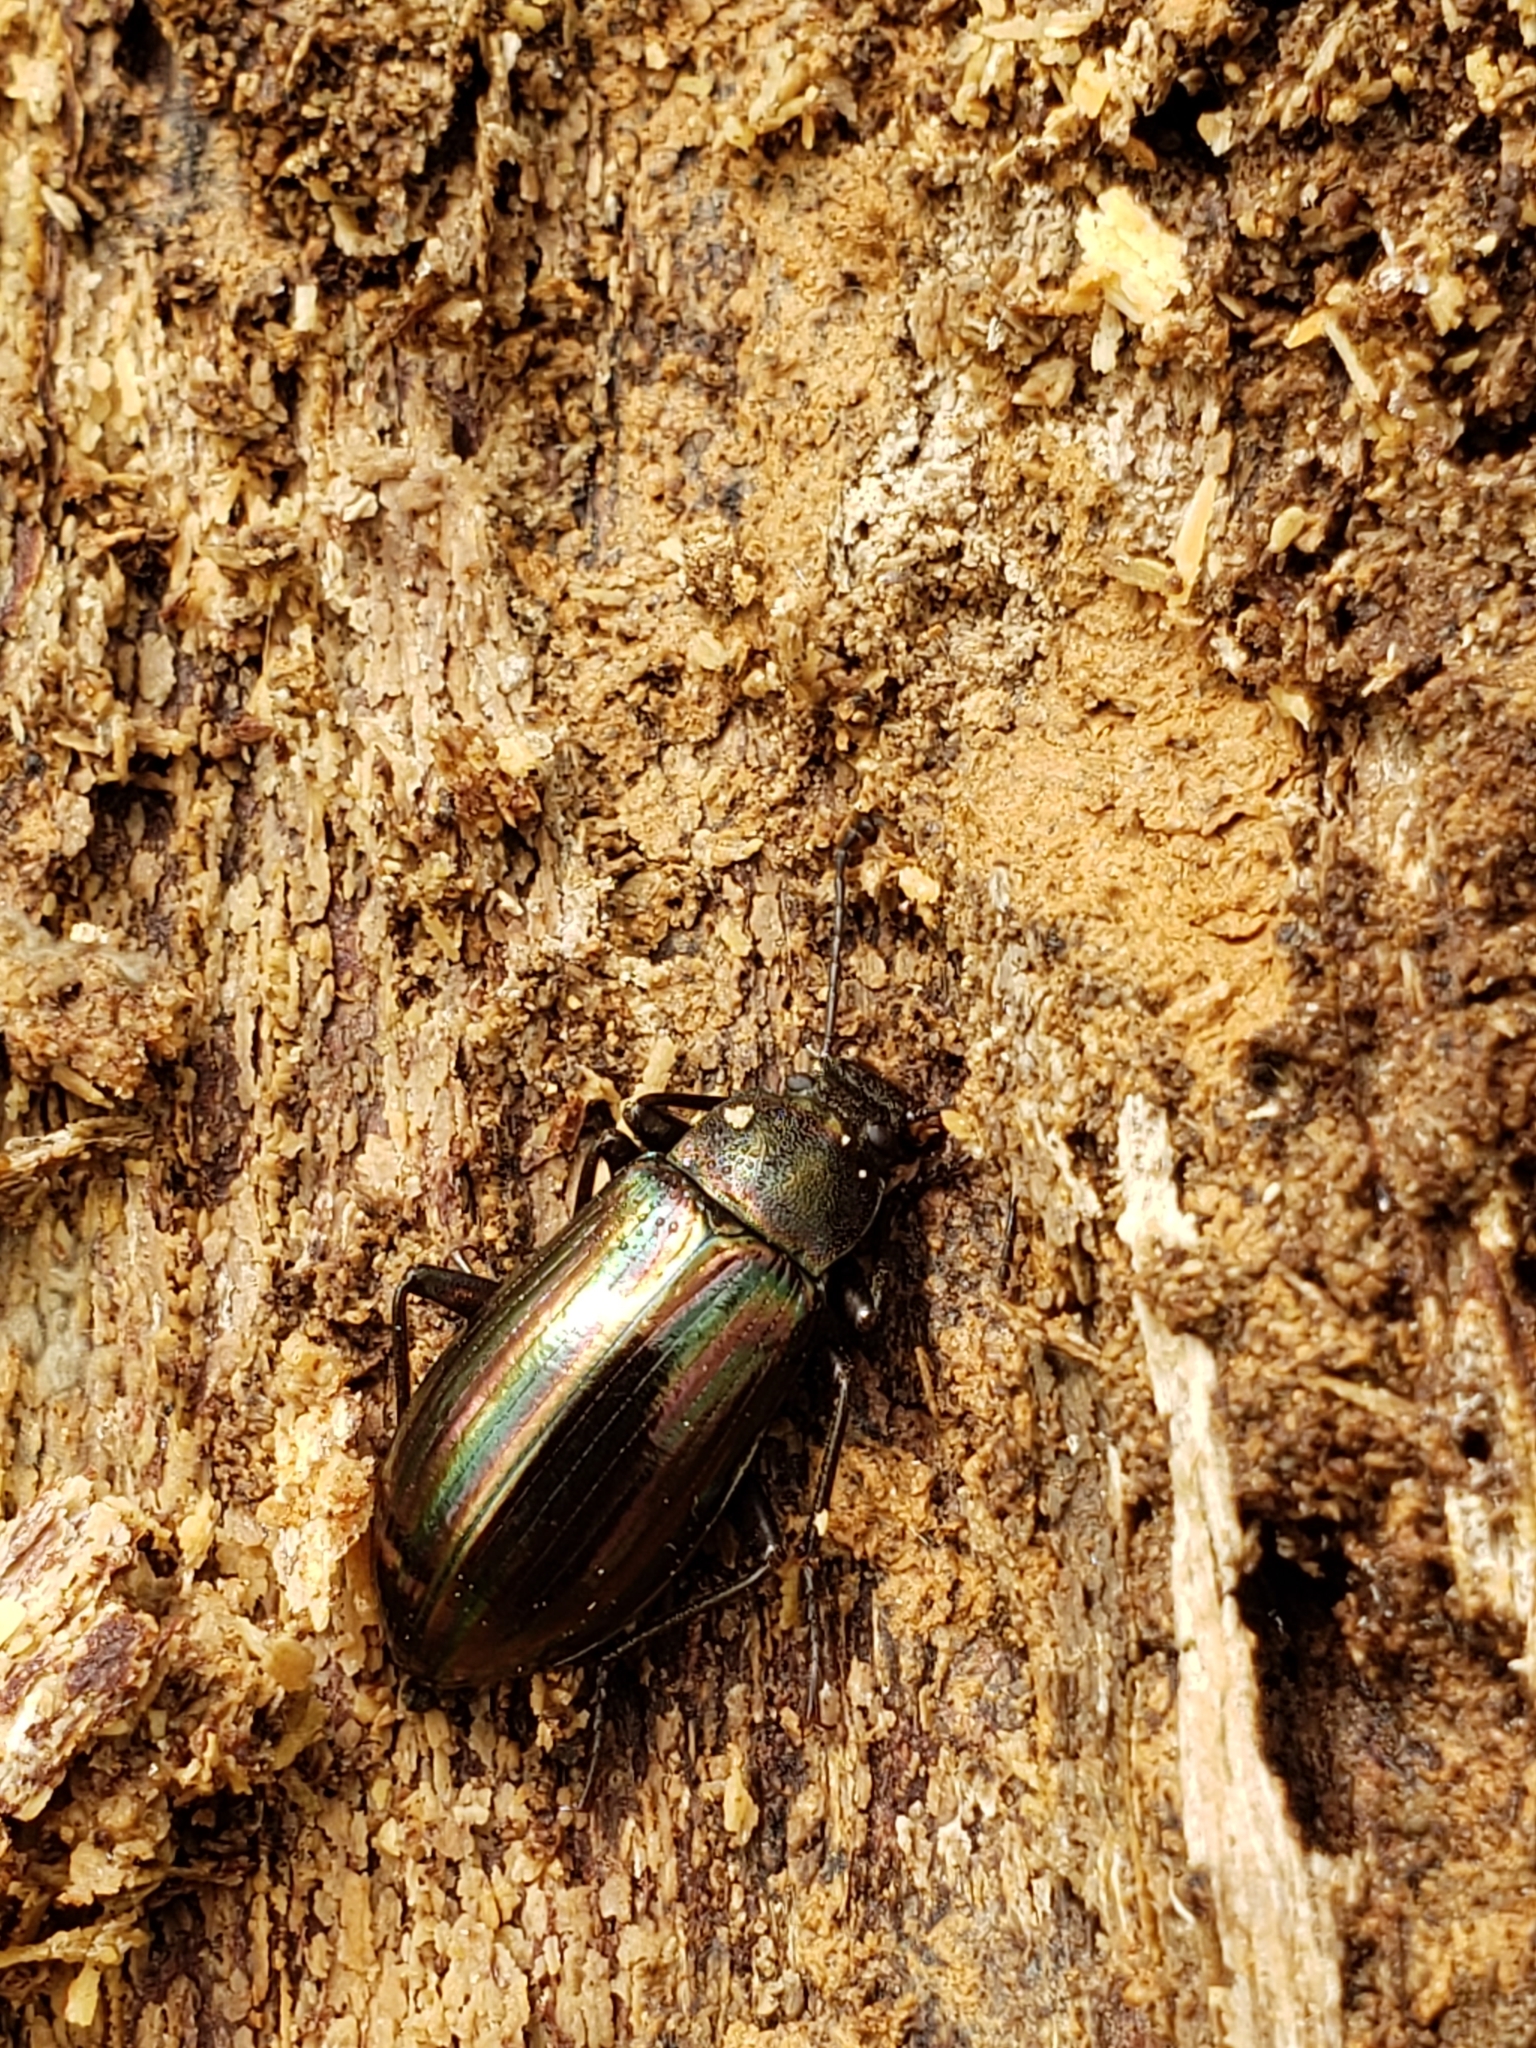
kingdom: Animalia
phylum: Arthropoda
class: Insecta
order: Coleoptera
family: Tenebrionidae
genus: Tarpela
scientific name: Tarpela micans
